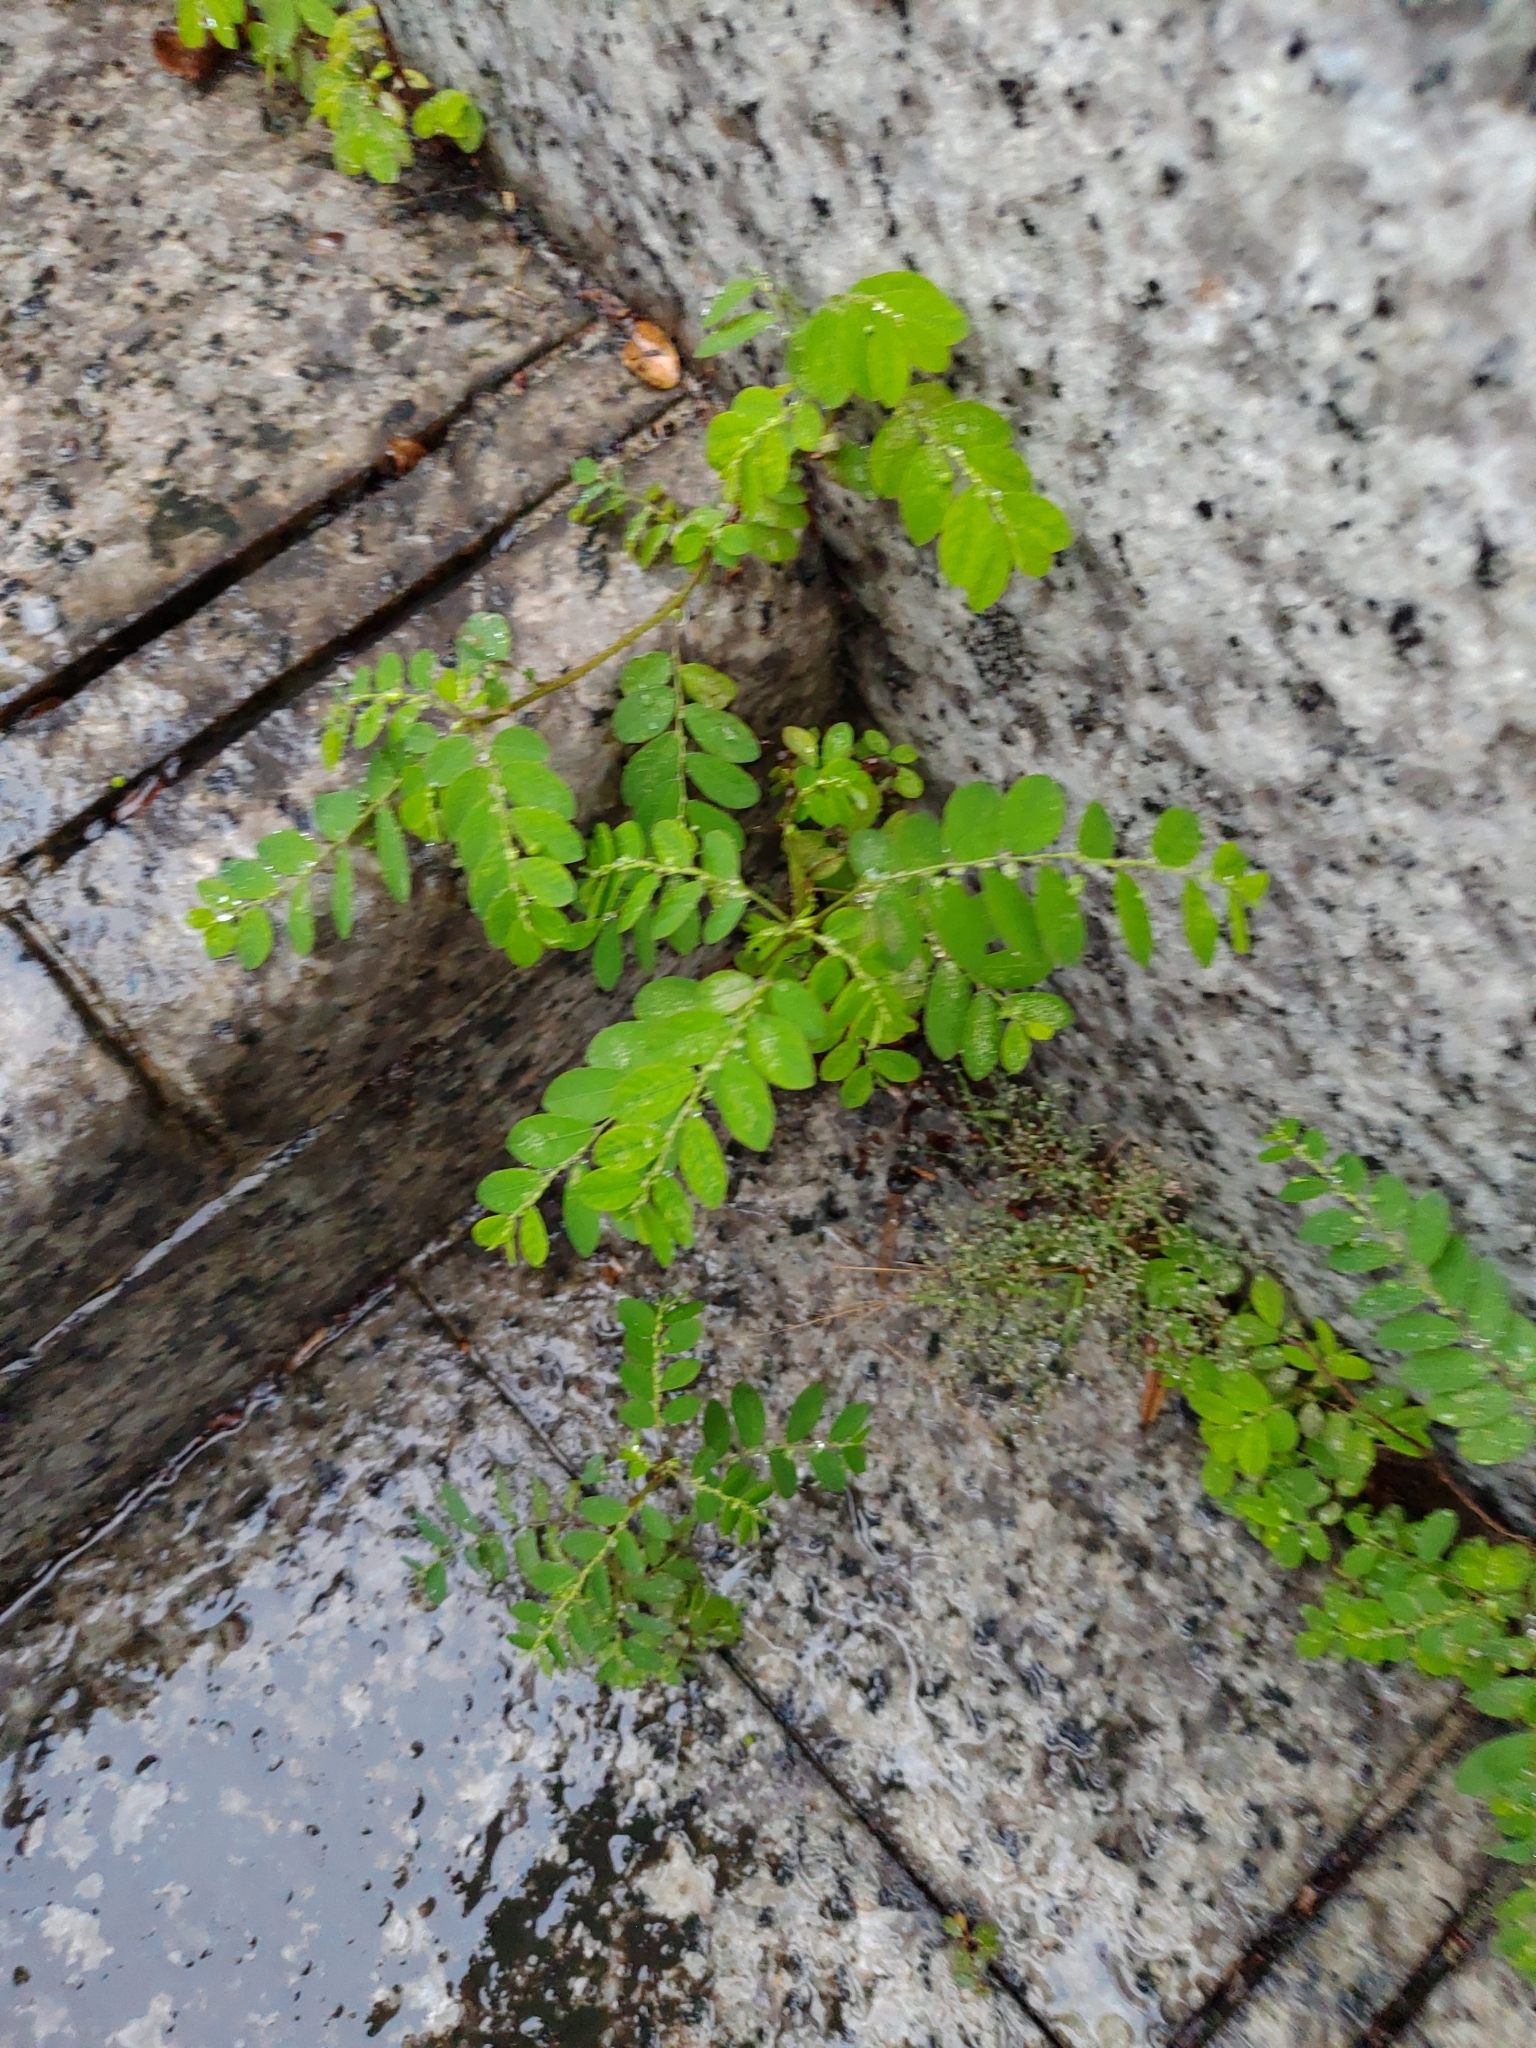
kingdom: Plantae
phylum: Tracheophyta
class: Magnoliopsida
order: Malpighiales
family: Phyllanthaceae
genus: Phyllanthus
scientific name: Phyllanthus tenellus
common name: Mascarene island leaf-flower
